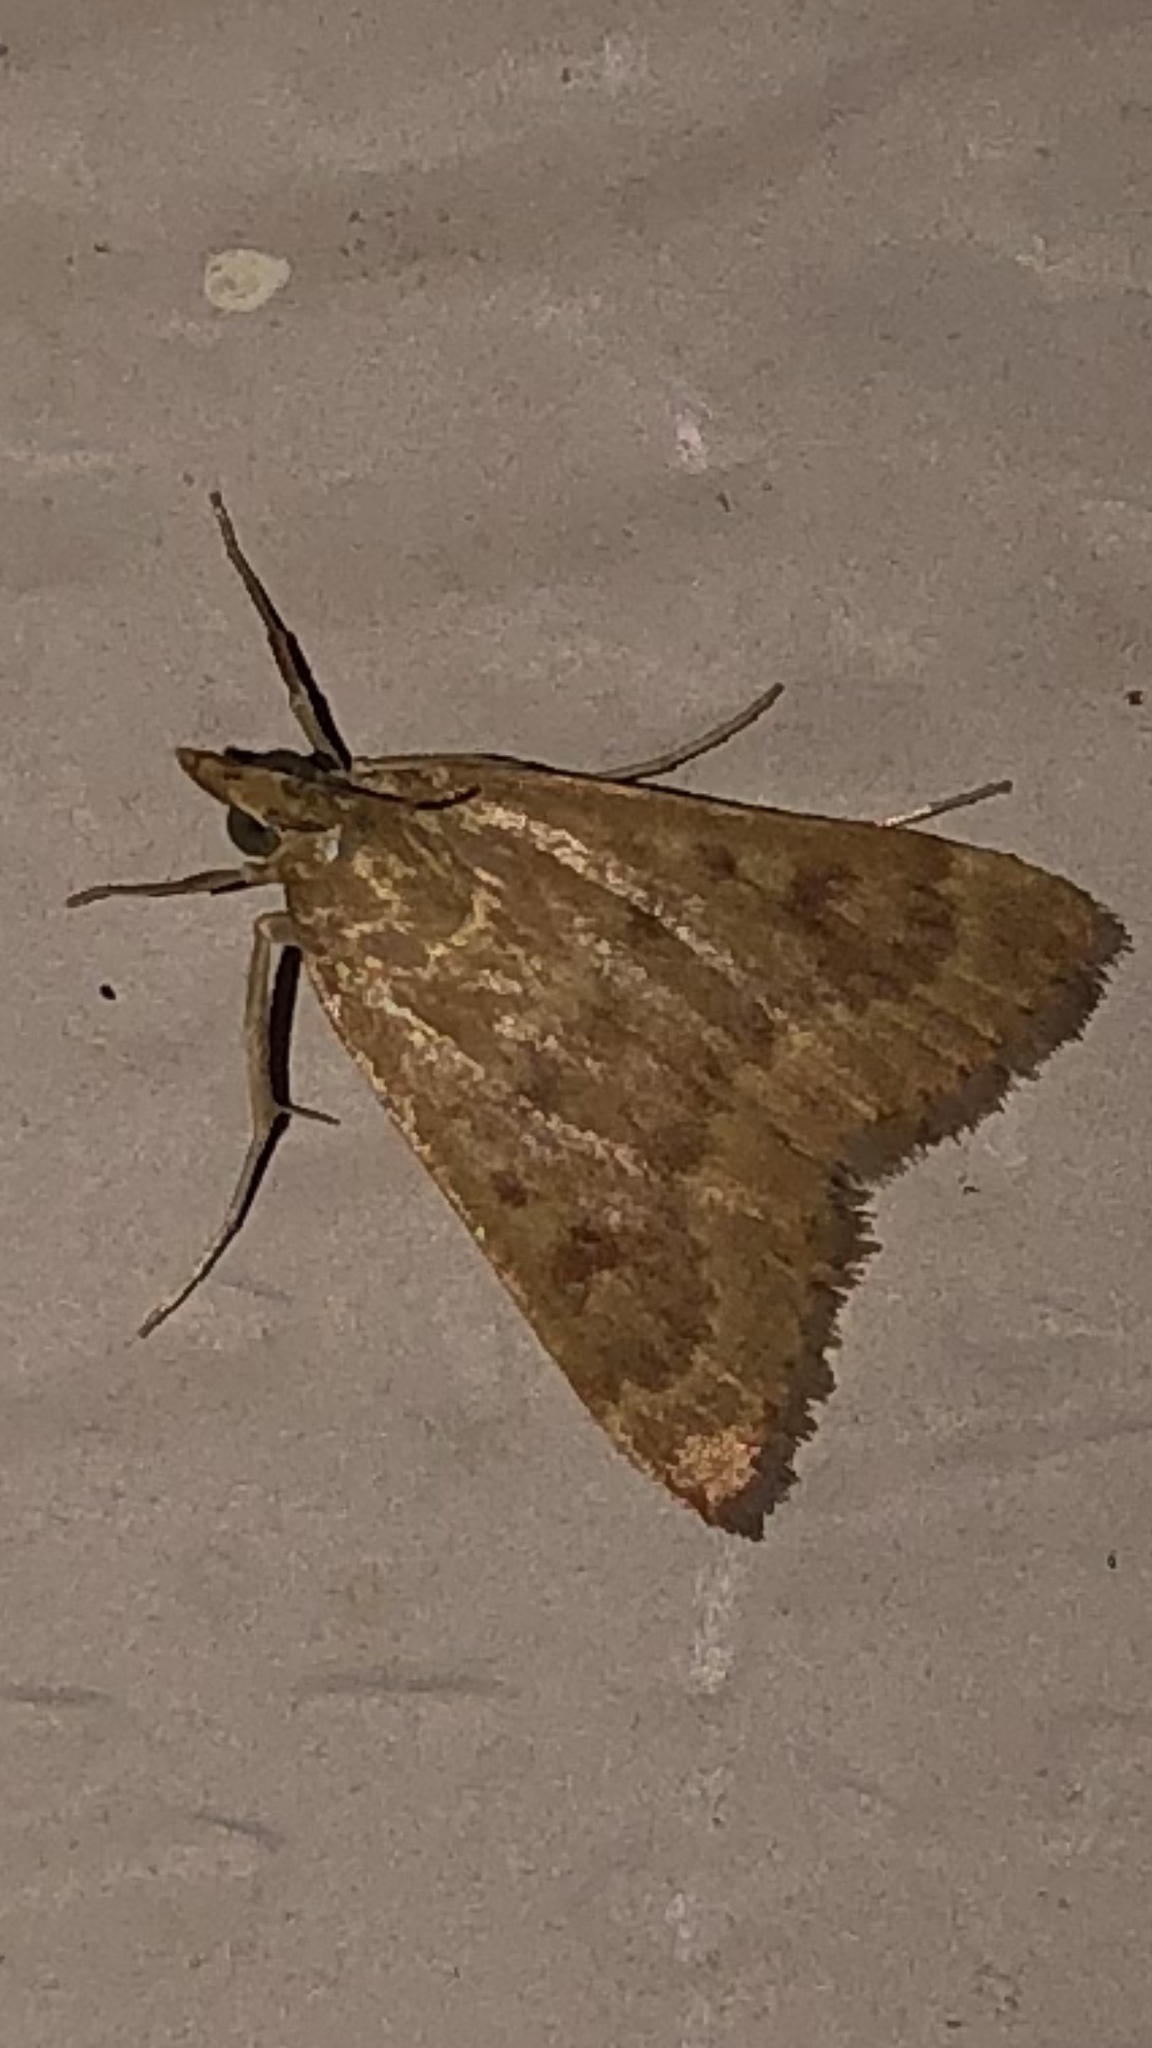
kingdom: Animalia
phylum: Arthropoda
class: Insecta
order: Lepidoptera
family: Crambidae
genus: Achyra
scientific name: Achyra rantalis
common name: Garden webworm
